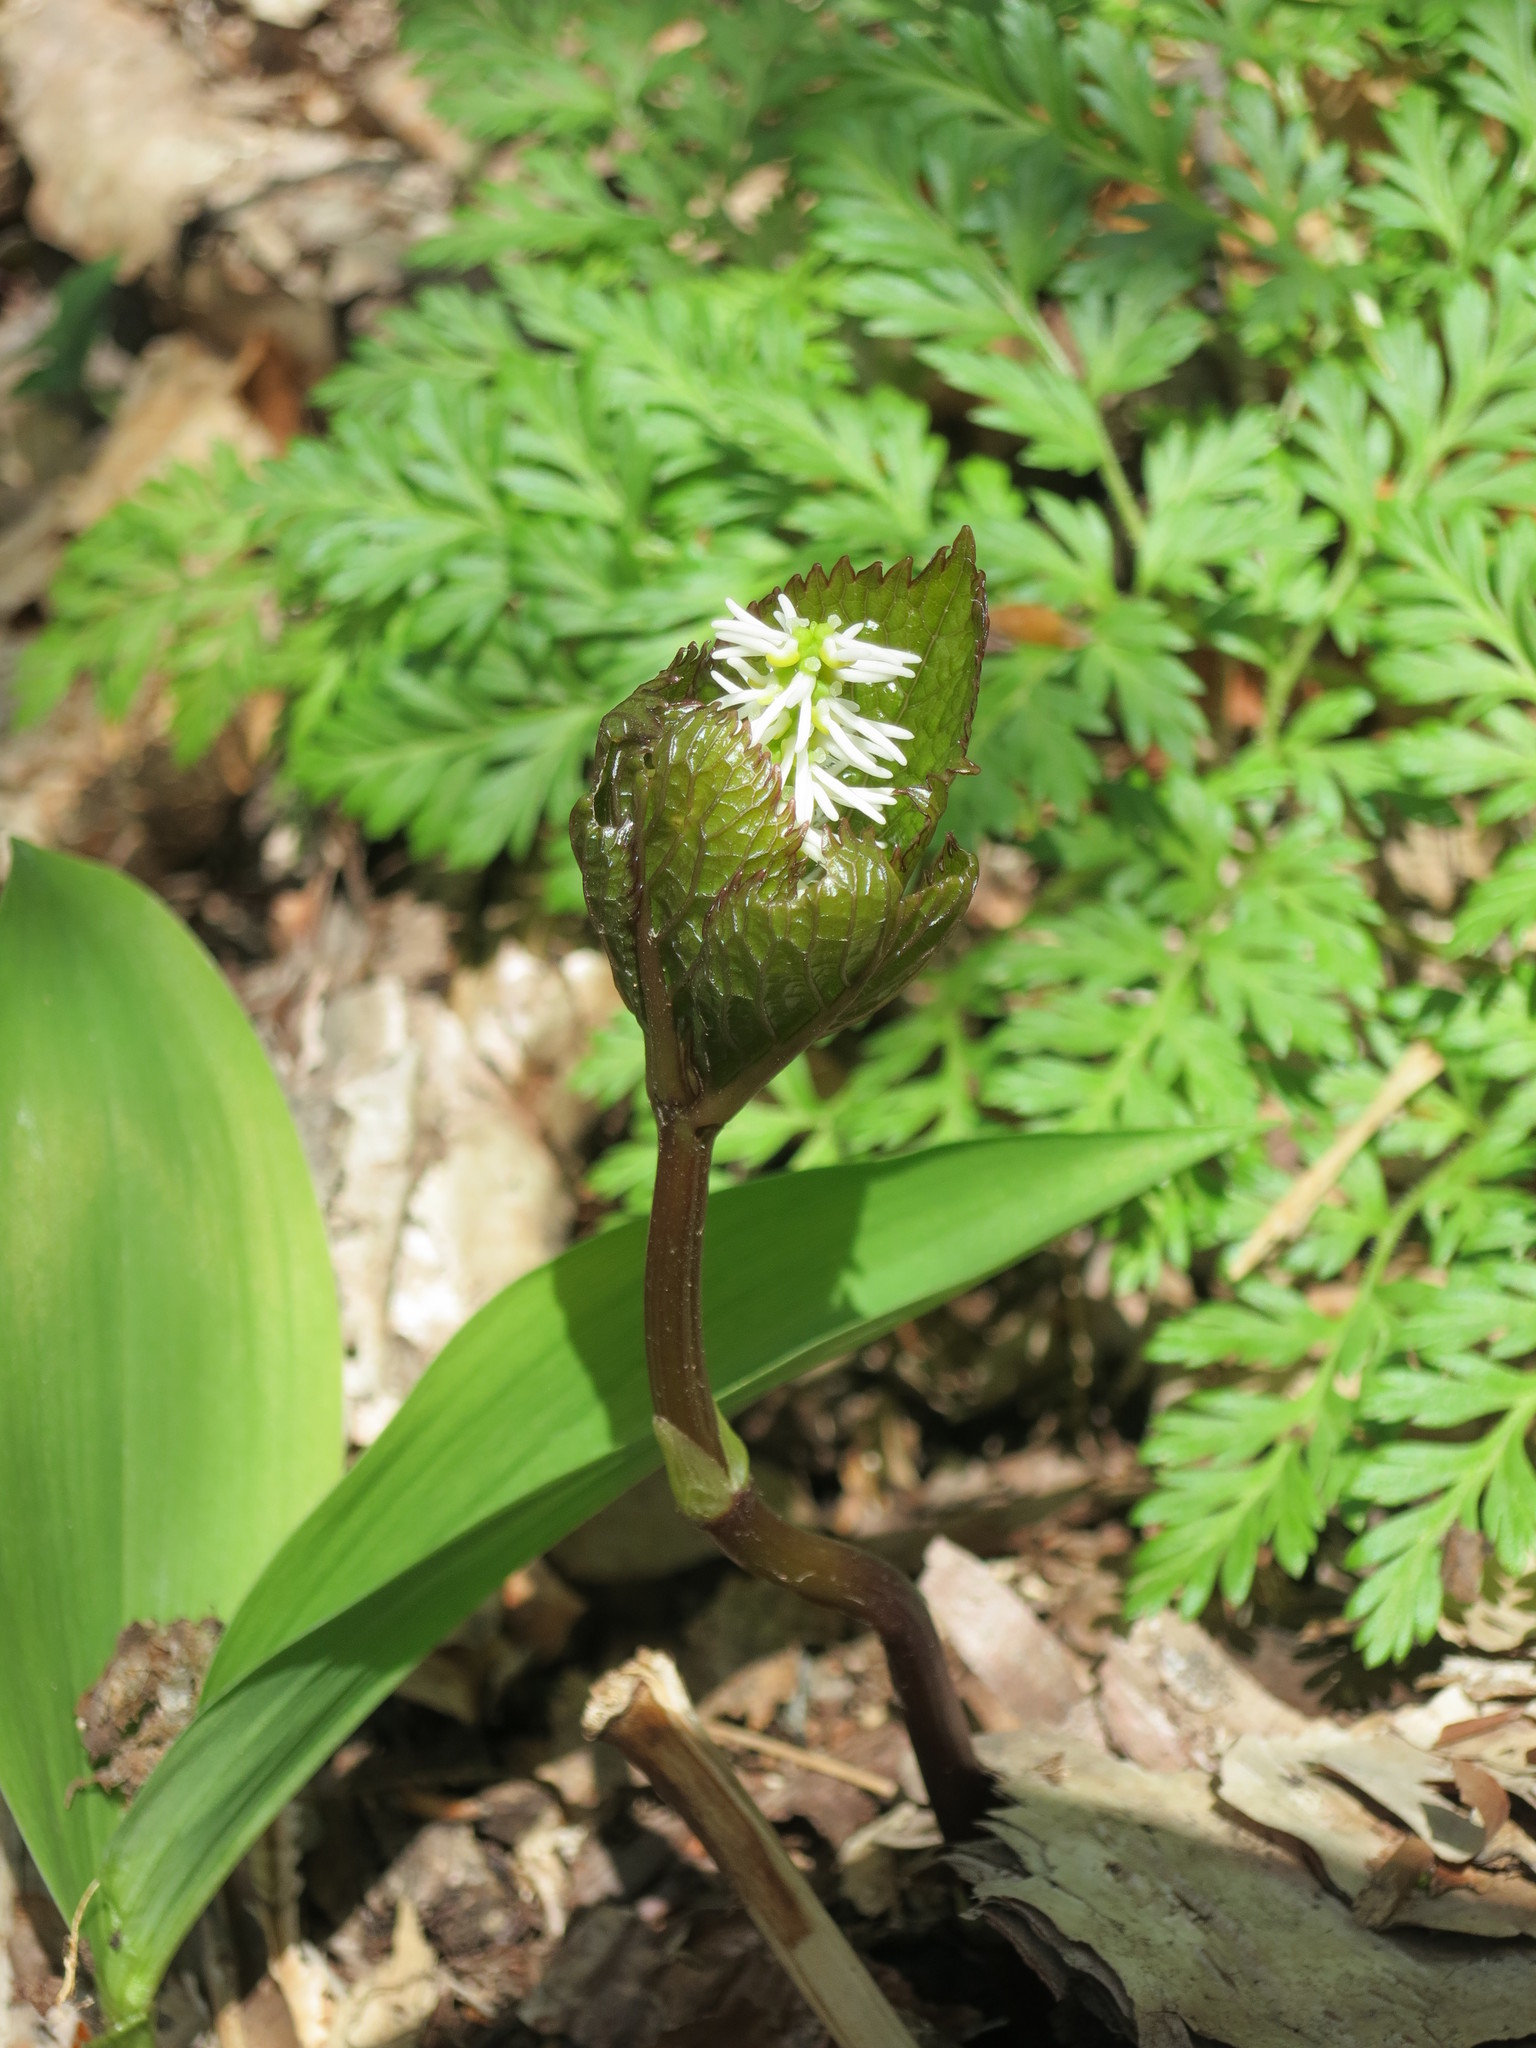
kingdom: Plantae
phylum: Tracheophyta
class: Magnoliopsida
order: Chloranthales
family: Chloranthaceae
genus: Chloranthus
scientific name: Chloranthus quadrifolius
